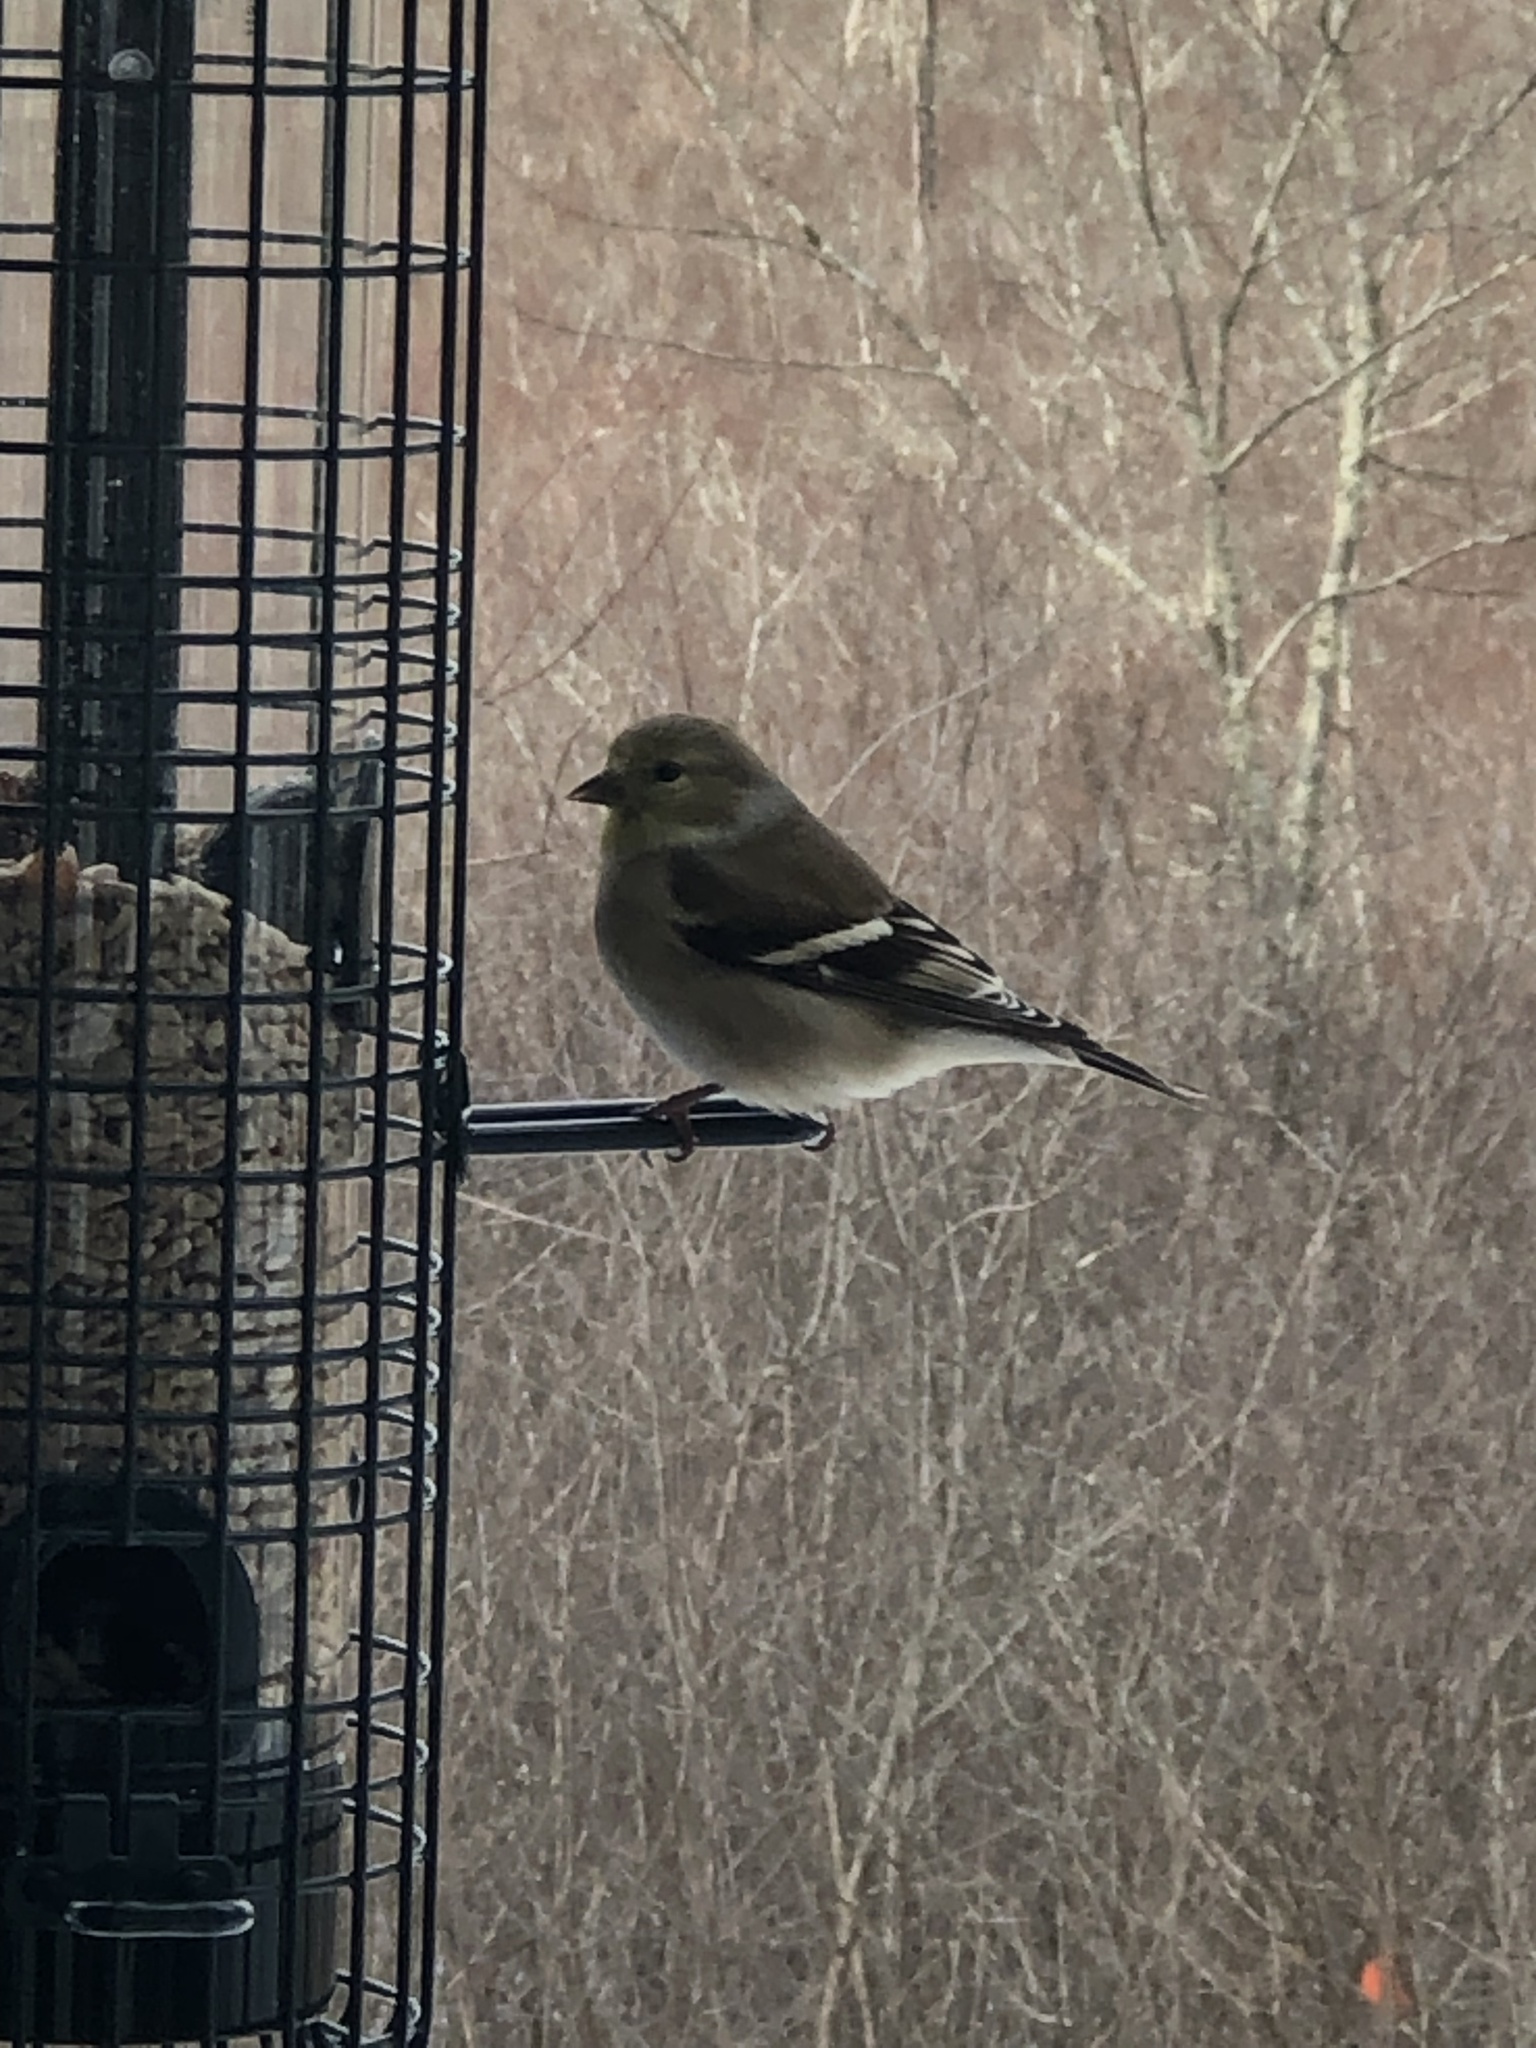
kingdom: Animalia
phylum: Chordata
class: Aves
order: Passeriformes
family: Fringillidae
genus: Spinus
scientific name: Spinus tristis
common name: American goldfinch
